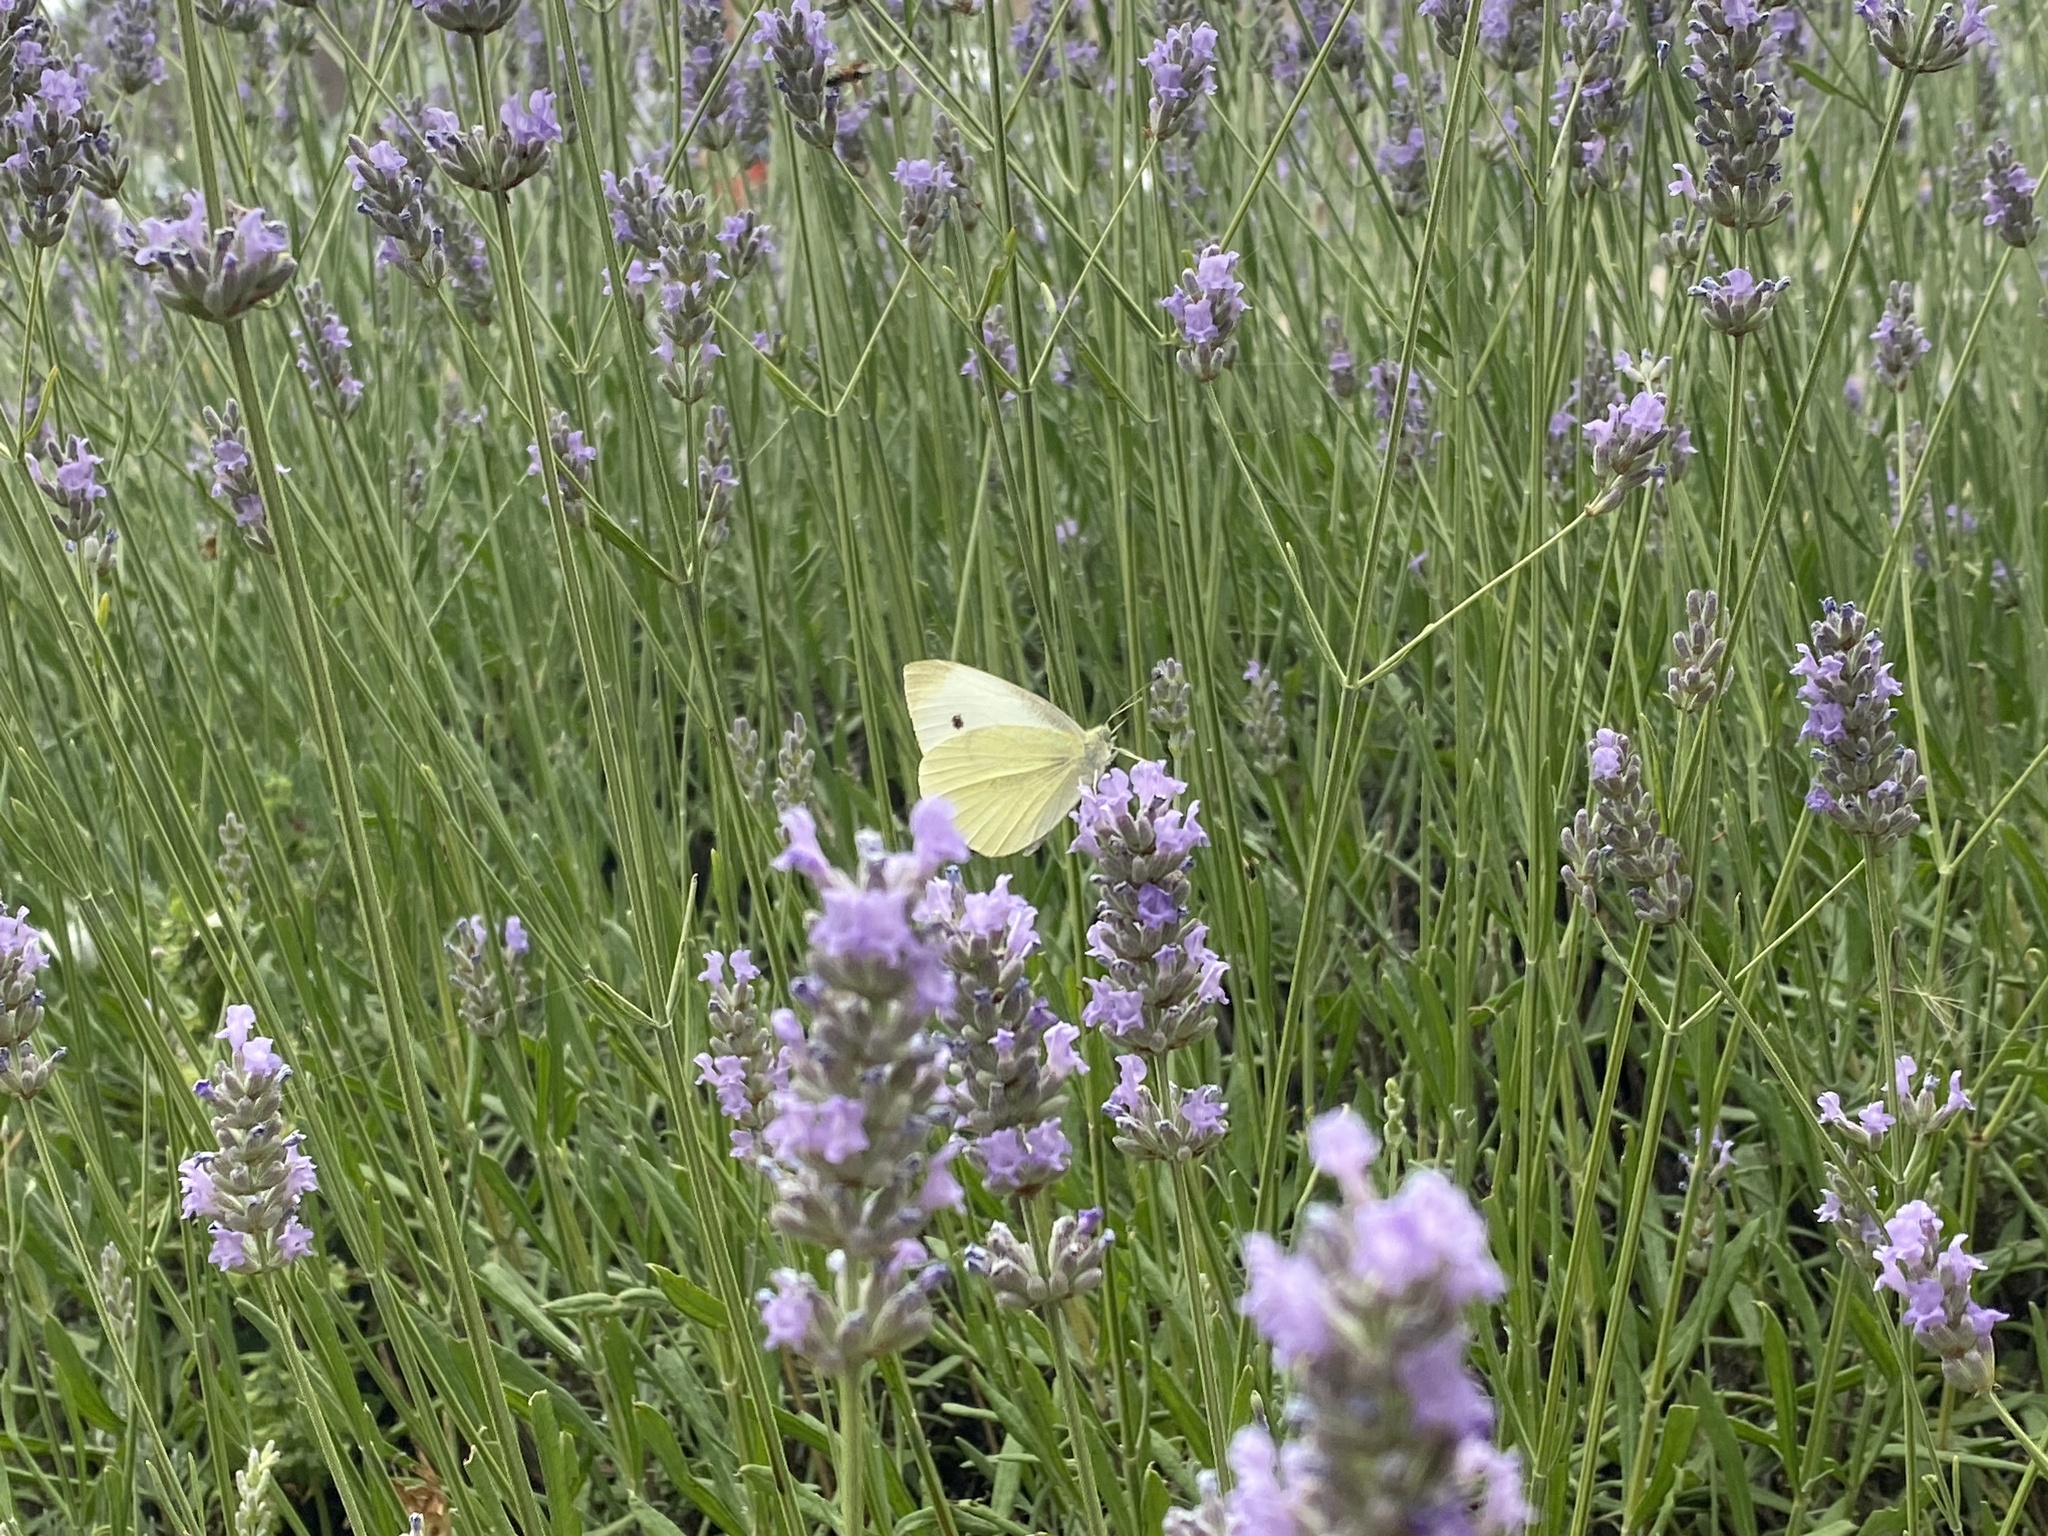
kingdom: Animalia
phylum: Arthropoda
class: Insecta
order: Lepidoptera
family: Pieridae
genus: Pieris
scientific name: Pieris rapae
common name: Small white
